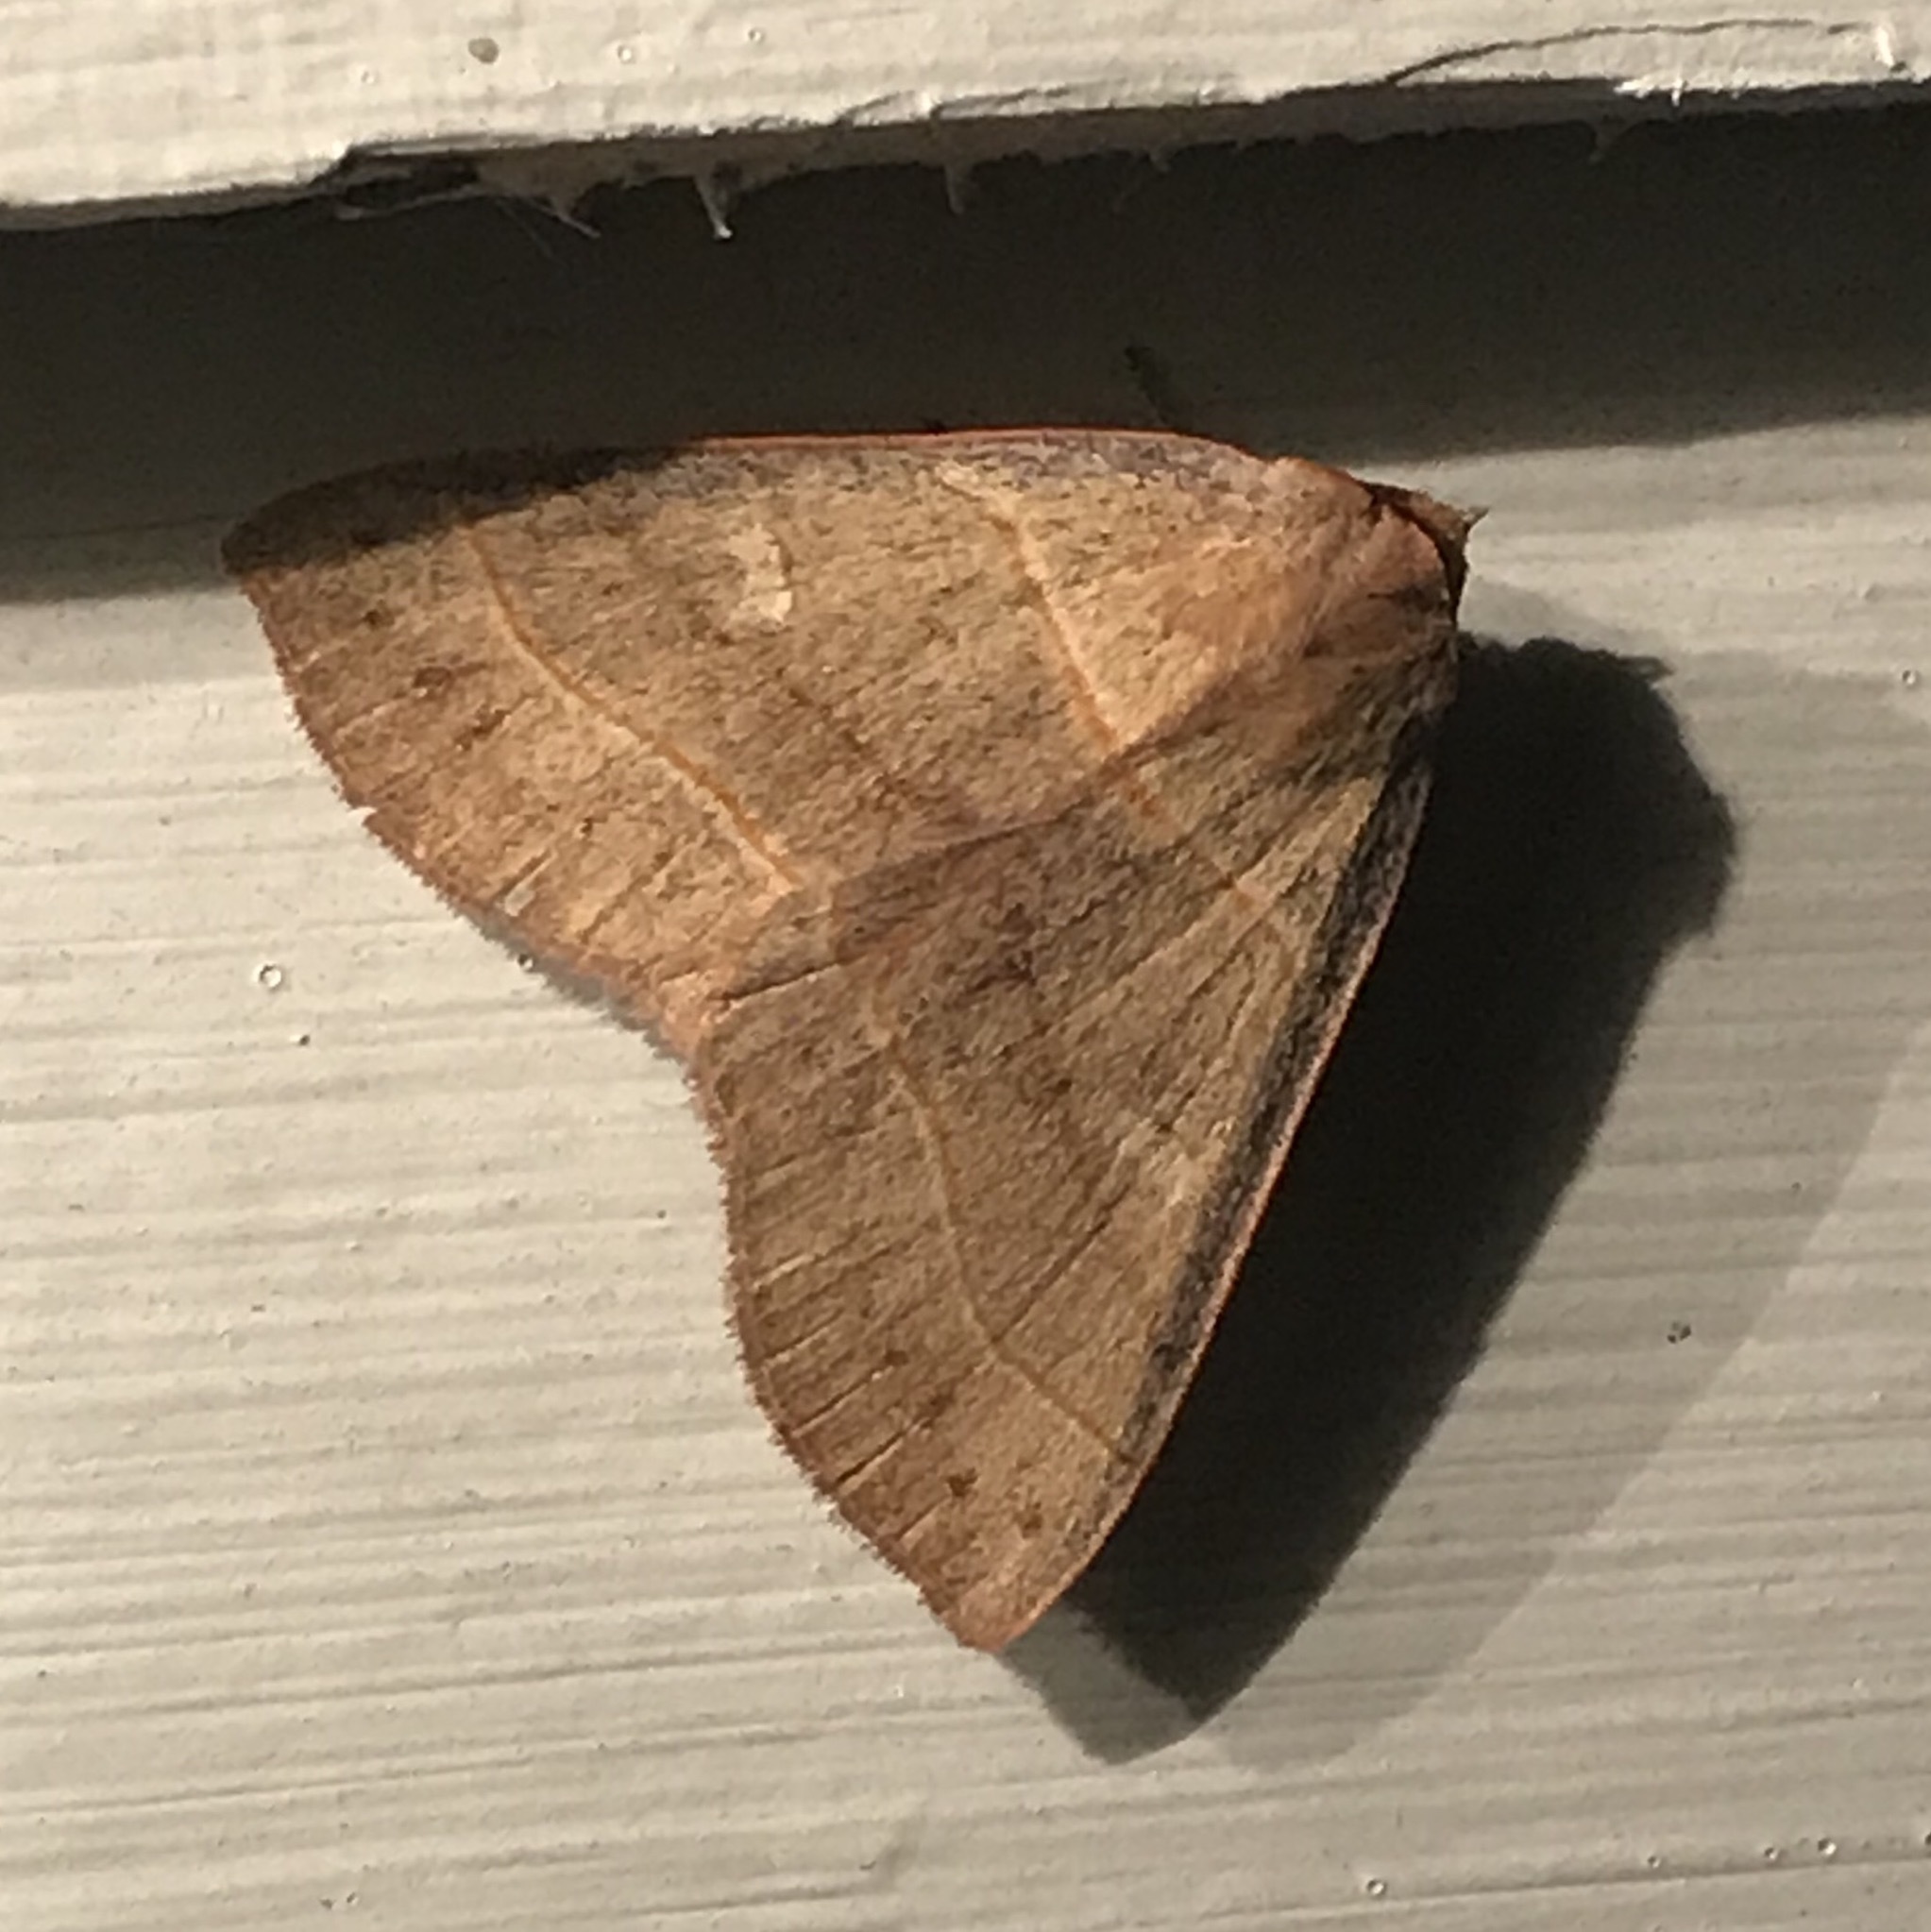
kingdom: Animalia
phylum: Arthropoda
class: Insecta
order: Lepidoptera
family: Erebidae
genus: Panopoda
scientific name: Panopoda rufimargo
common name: Red-lined panopoda moth
